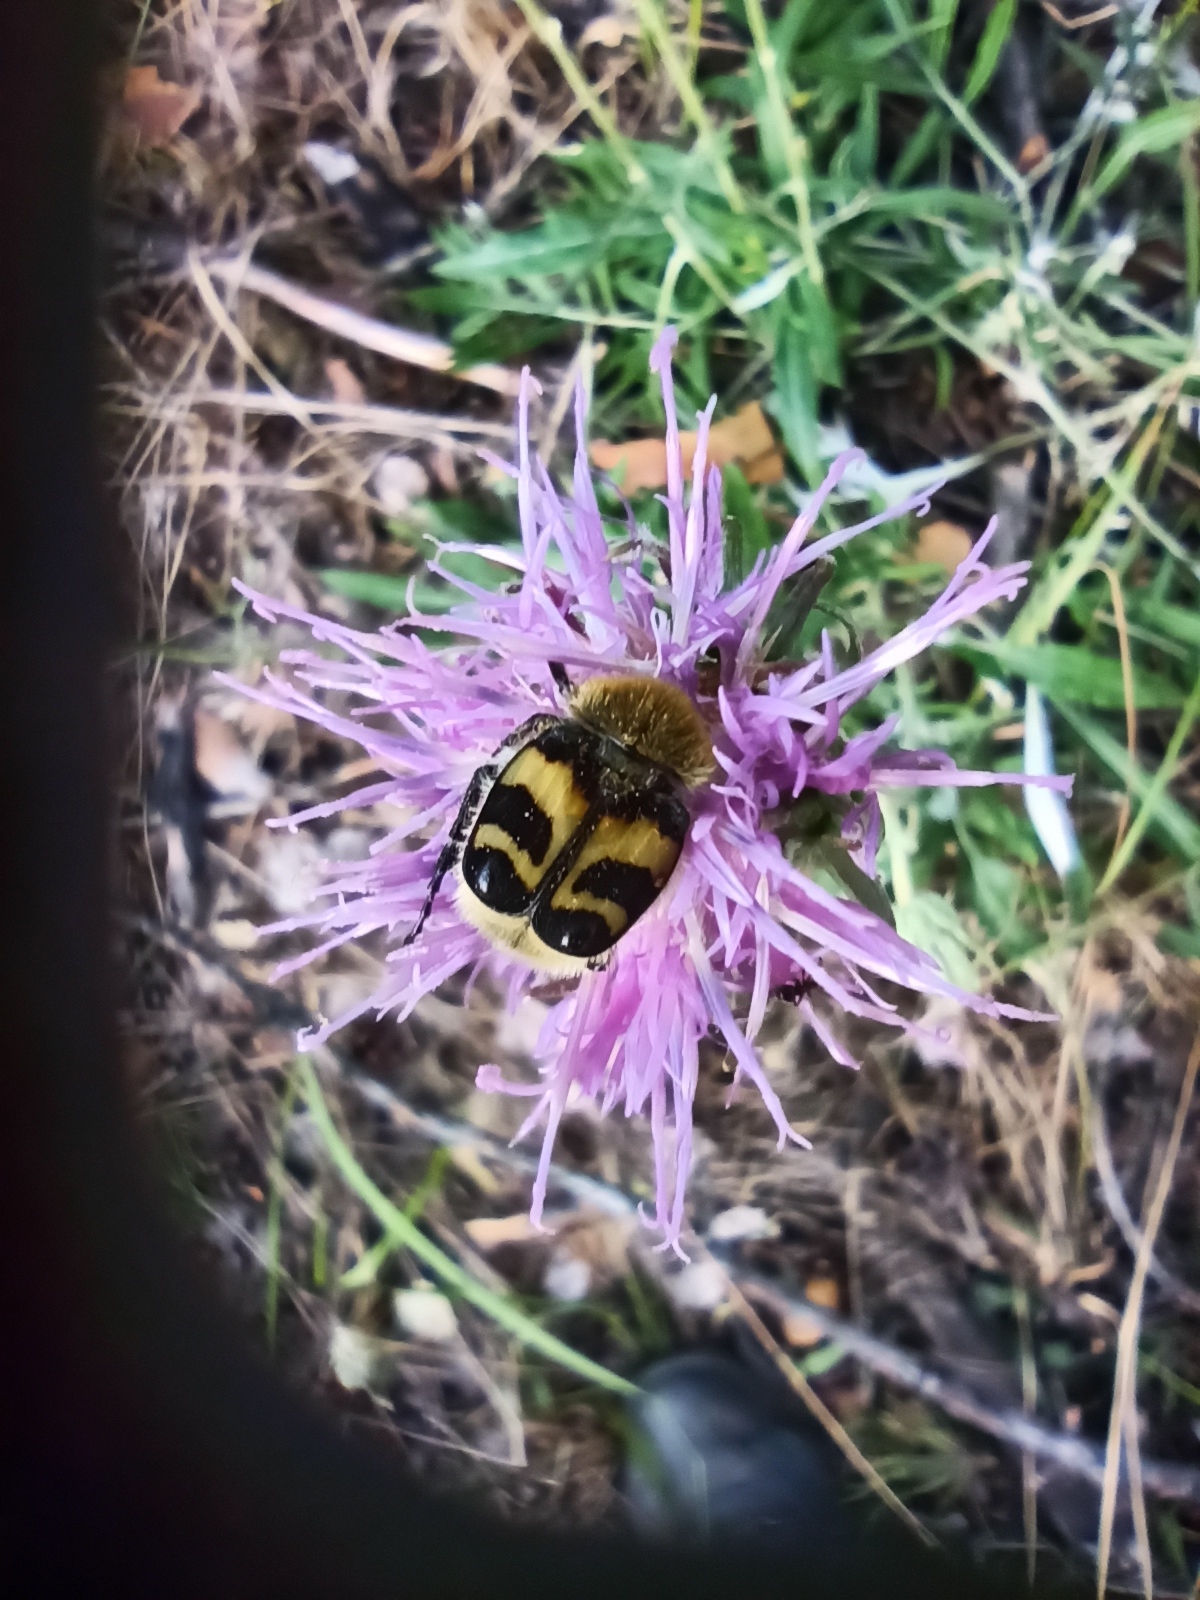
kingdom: Animalia
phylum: Arthropoda
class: Insecta
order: Coleoptera
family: Scarabaeidae
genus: Trichius
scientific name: Trichius fasciatus
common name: Bee beetle
